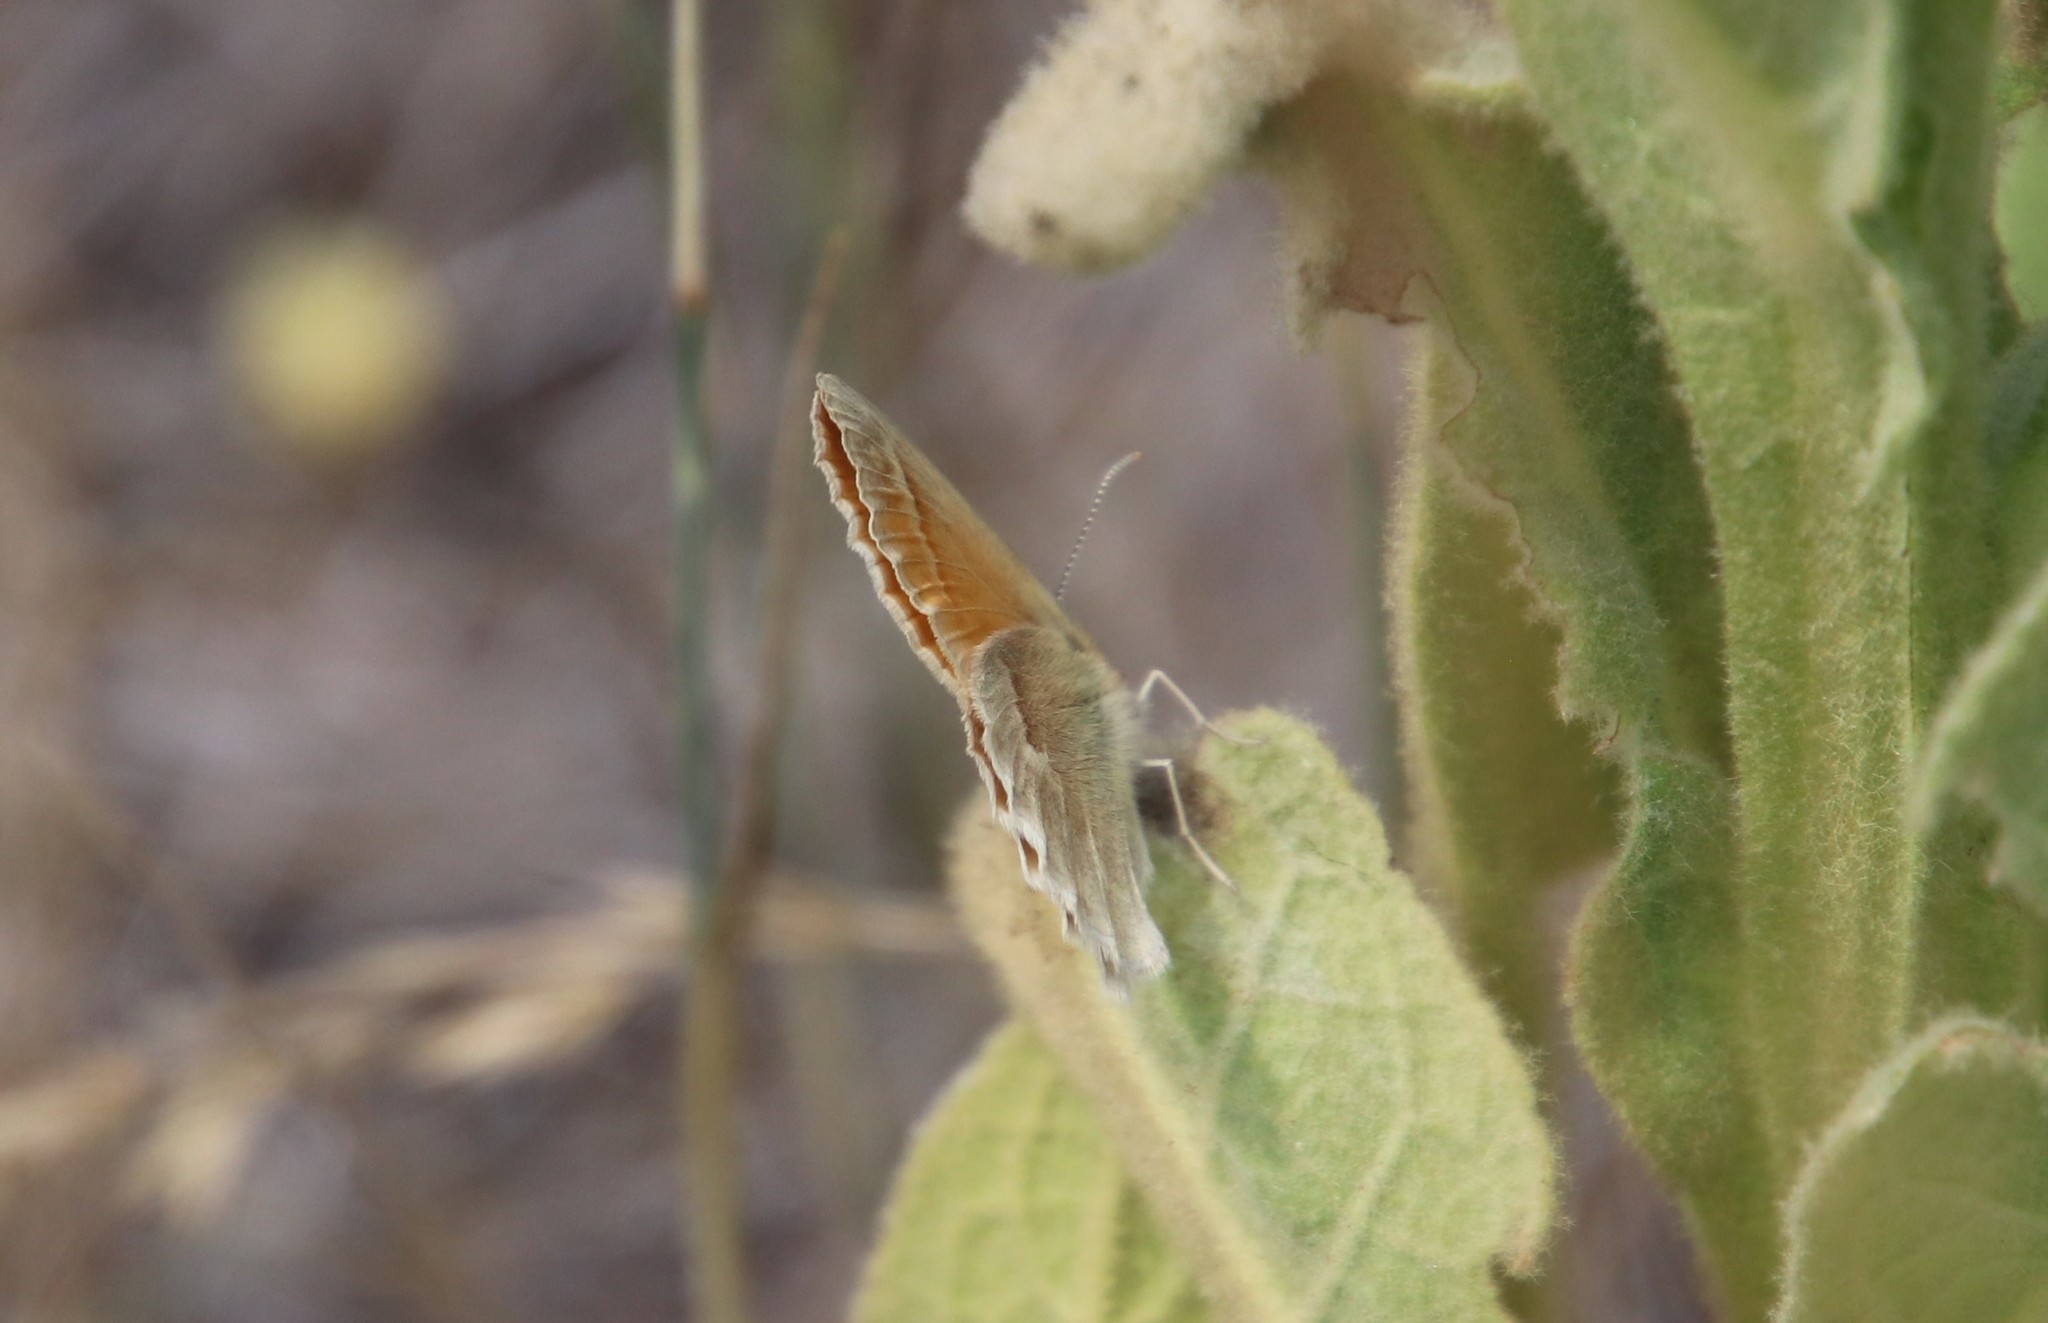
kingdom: Animalia
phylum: Arthropoda
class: Insecta
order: Lepidoptera
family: Nymphalidae
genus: Coenonympha
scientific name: Coenonympha california
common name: Common ringlet
